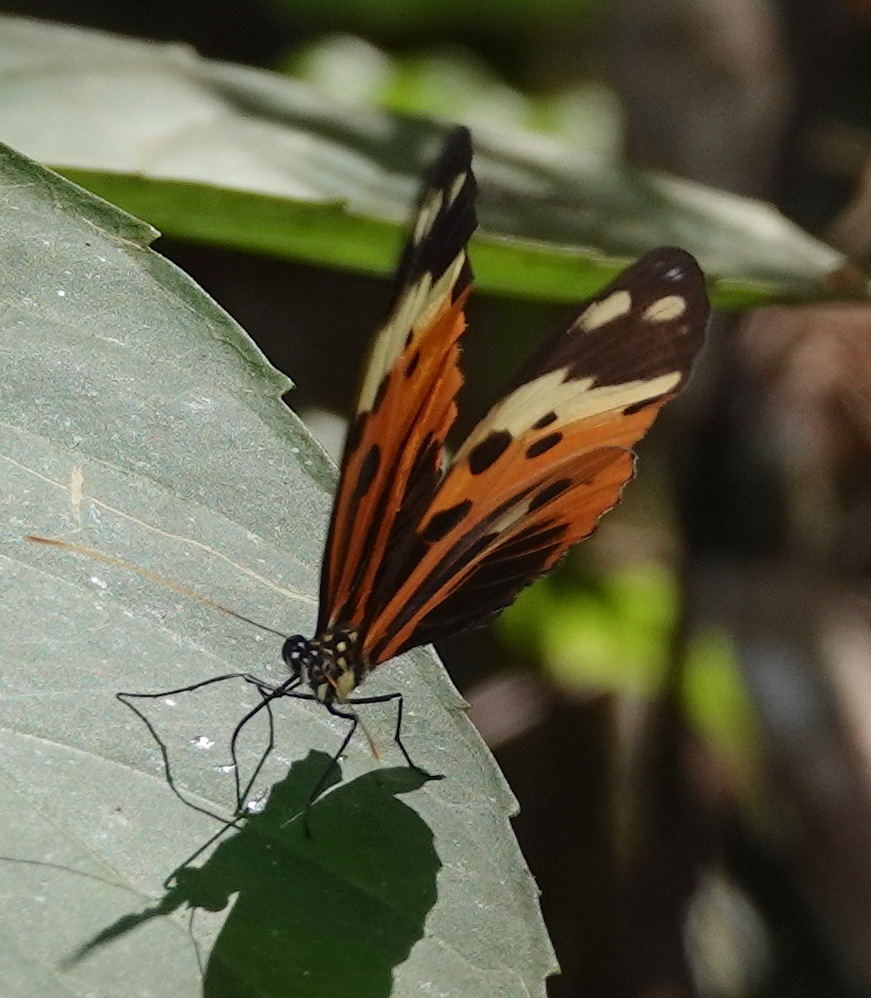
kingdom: Animalia
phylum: Arthropoda
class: Insecta
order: Lepidoptera
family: Nymphalidae
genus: Heliconius
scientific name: Heliconius numatus
